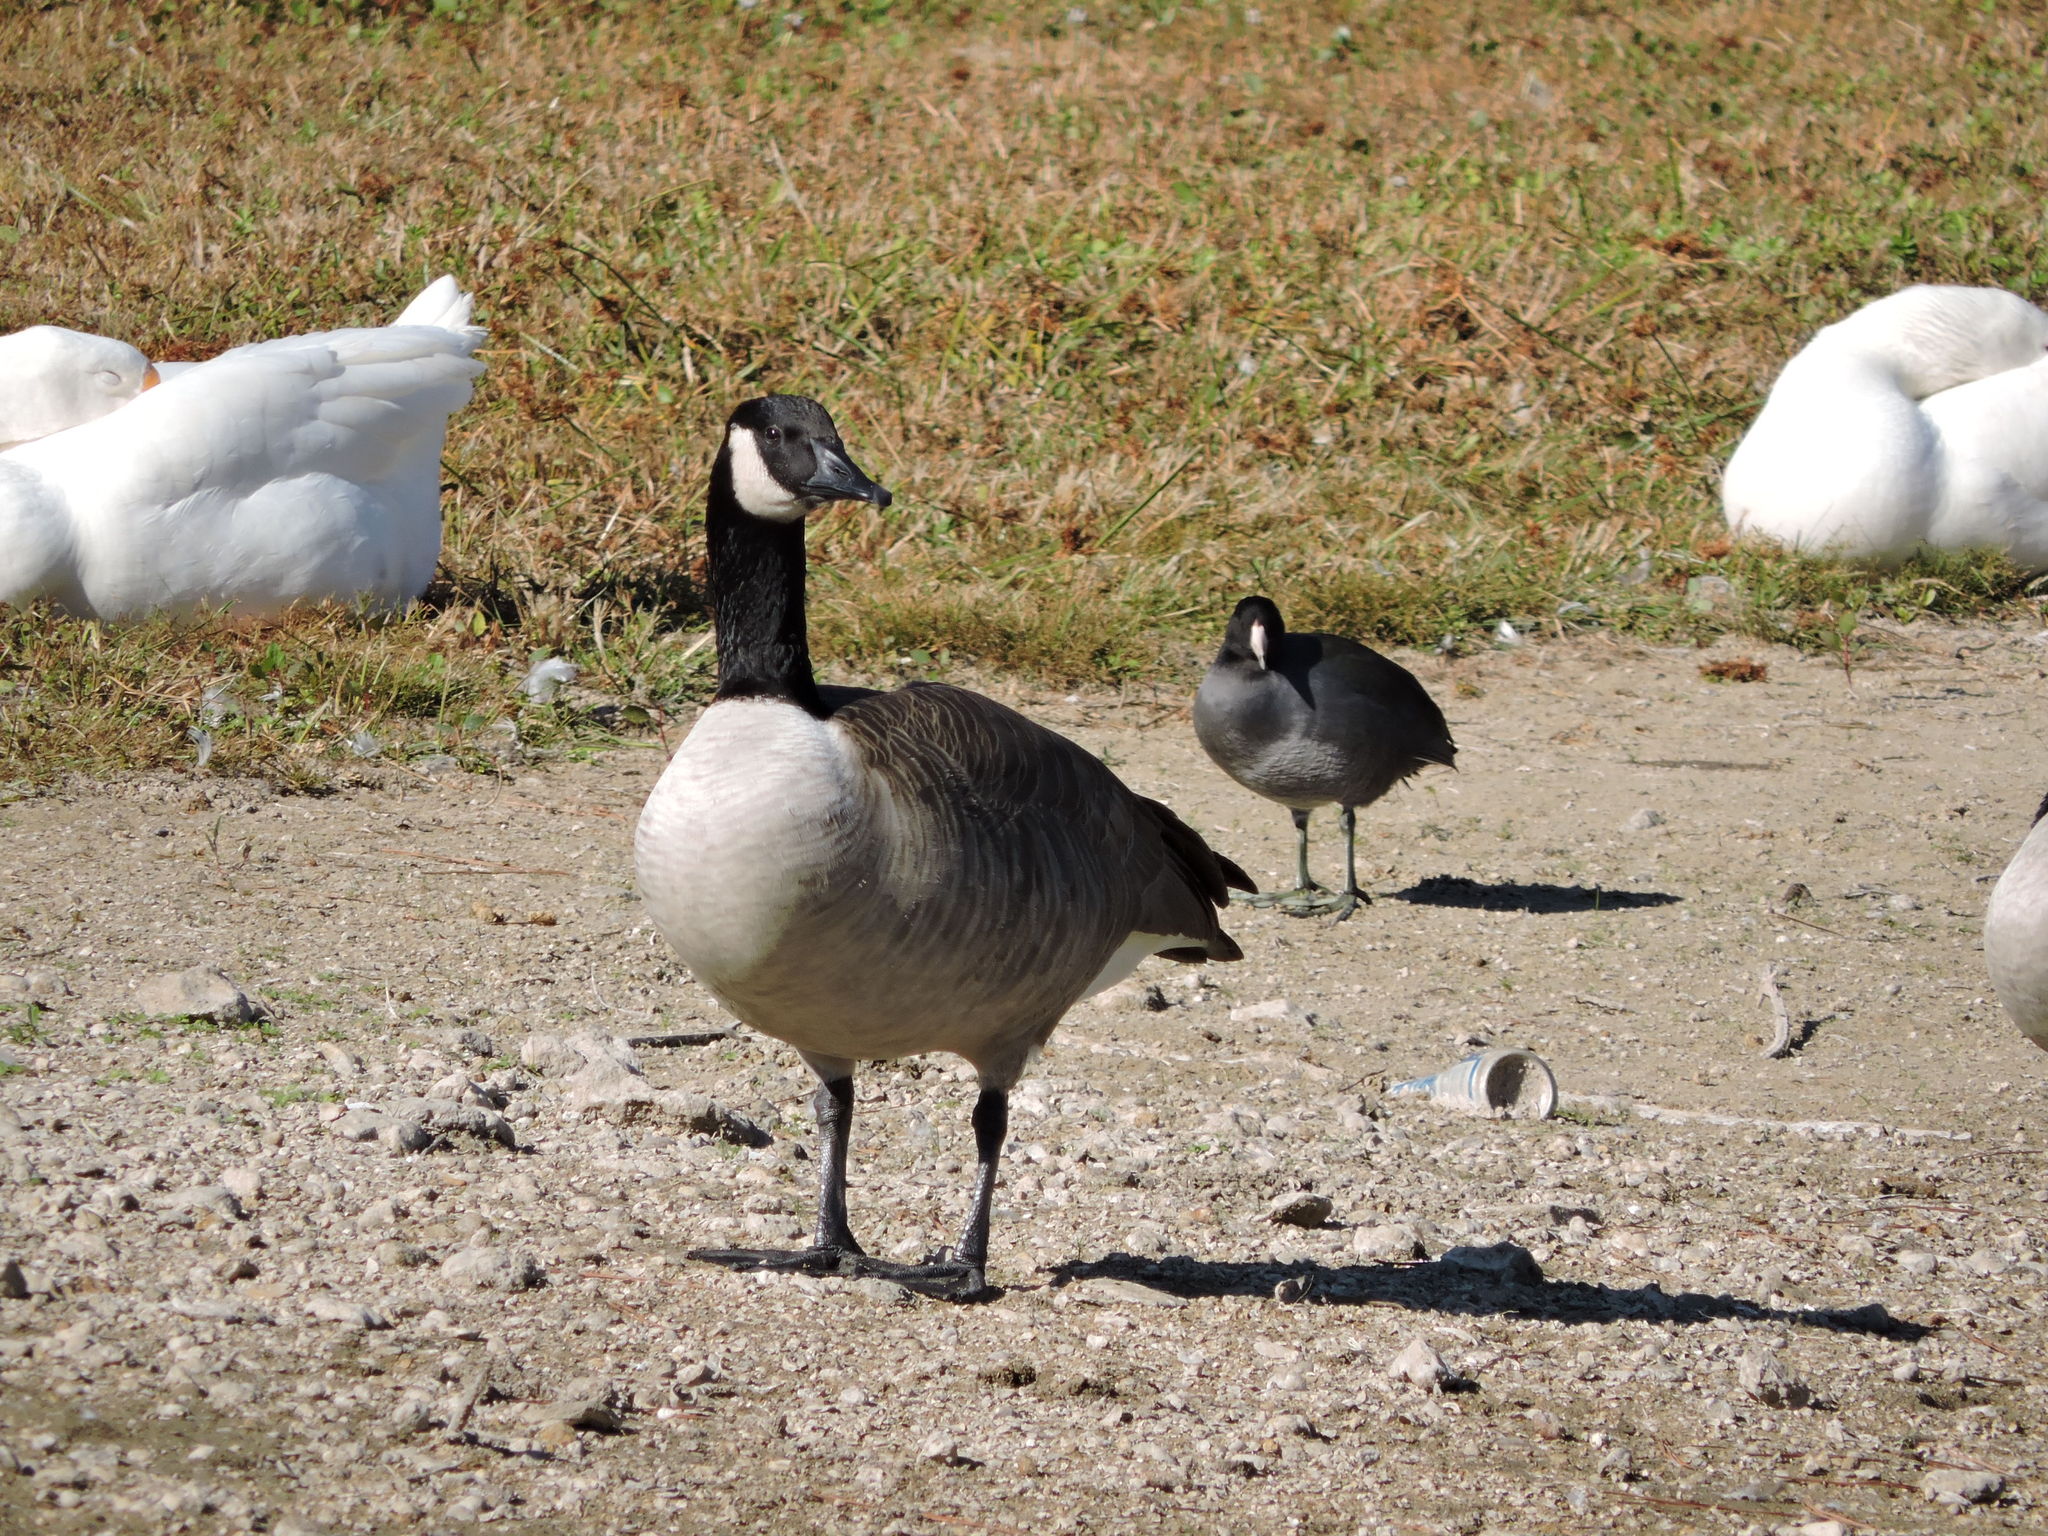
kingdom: Animalia
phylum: Chordata
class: Aves
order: Anseriformes
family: Anatidae
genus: Branta
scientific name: Branta canadensis
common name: Canada goose
